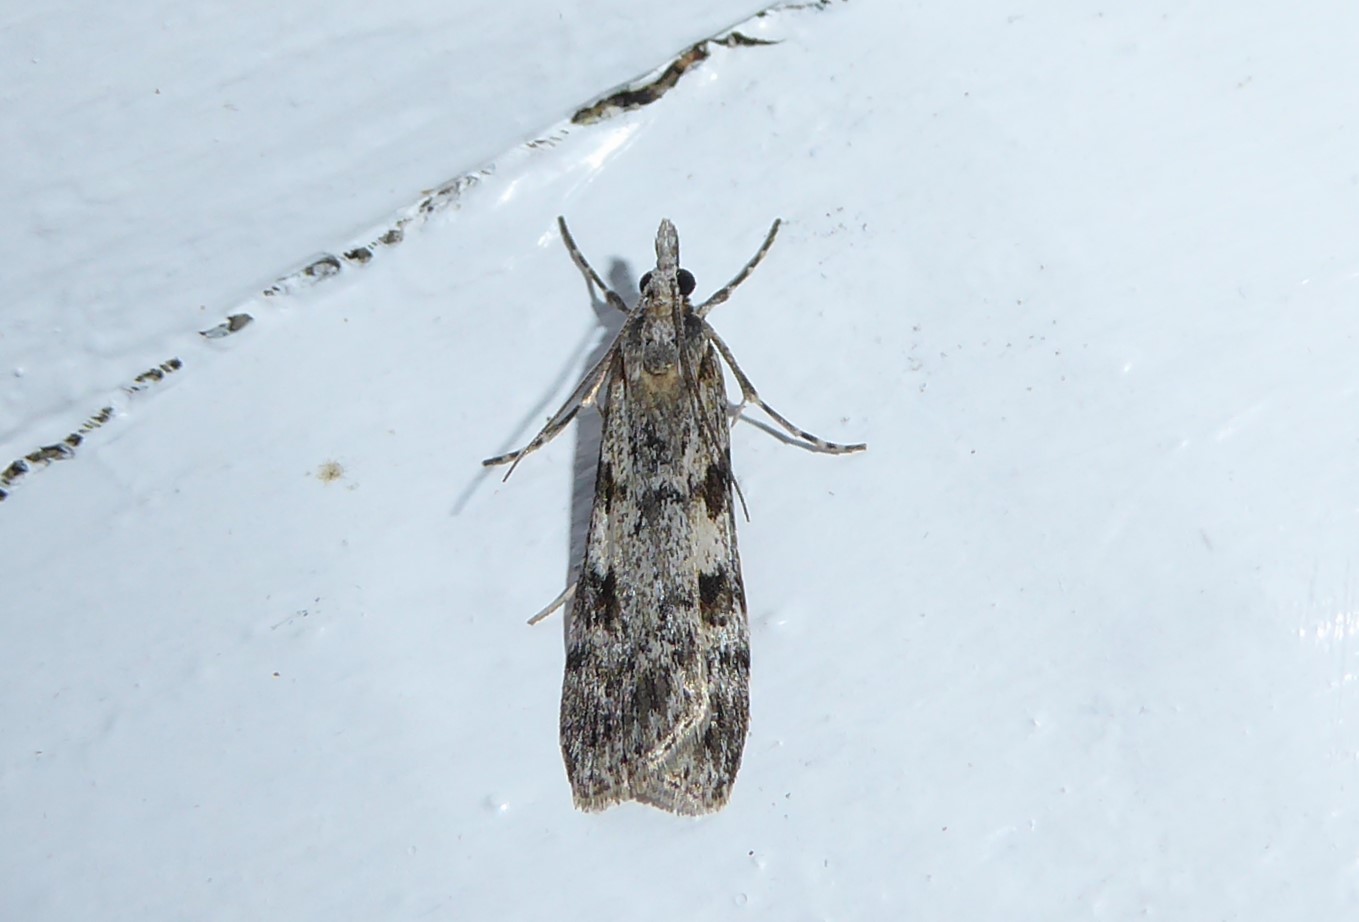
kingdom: Animalia
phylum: Arthropoda
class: Insecta
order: Lepidoptera
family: Crambidae
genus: Scoparia
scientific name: Scoparia halopis
